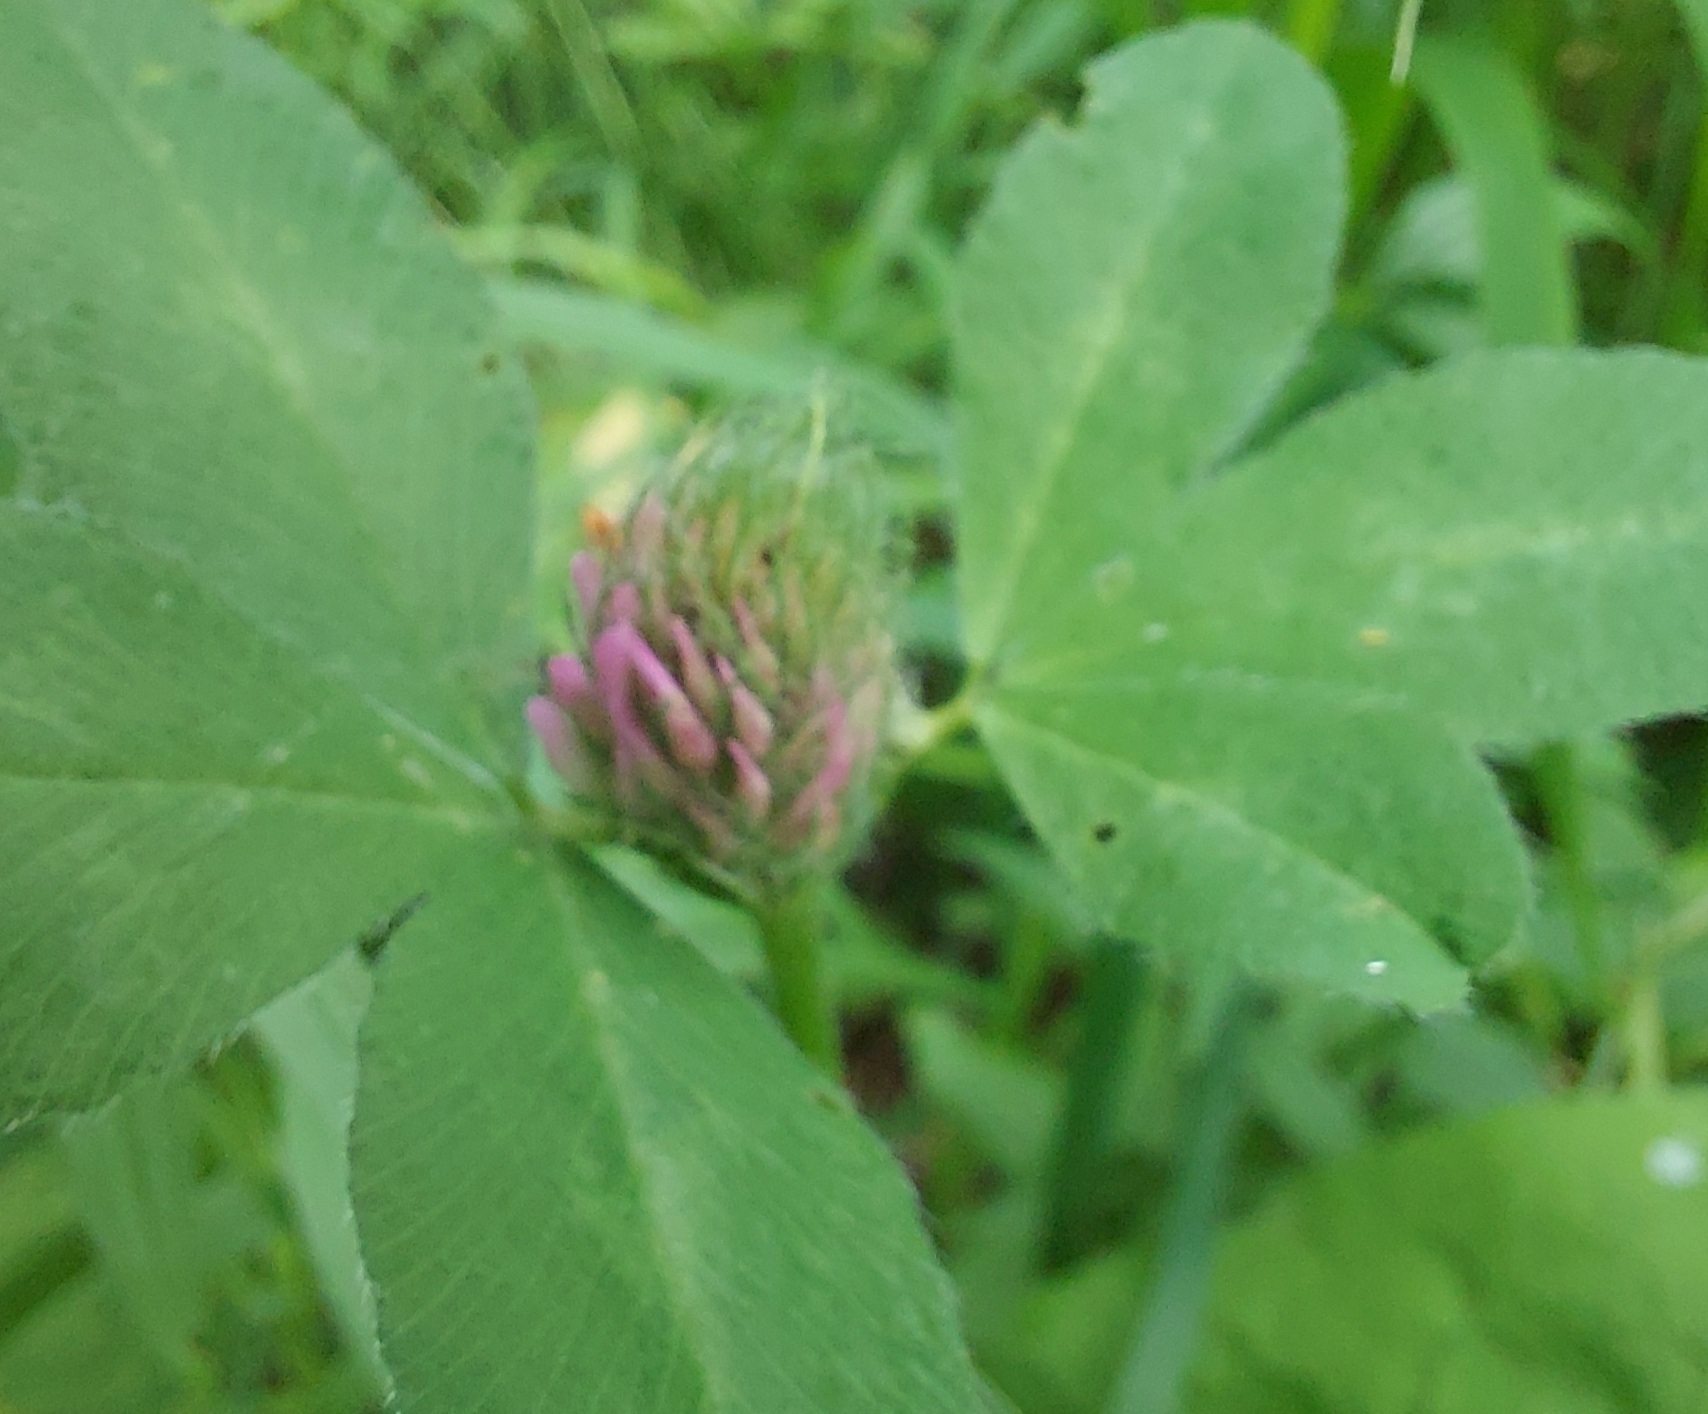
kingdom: Plantae
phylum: Tracheophyta
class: Magnoliopsida
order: Fabales
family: Fabaceae
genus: Trifolium
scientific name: Trifolium pratense
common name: Red clover
